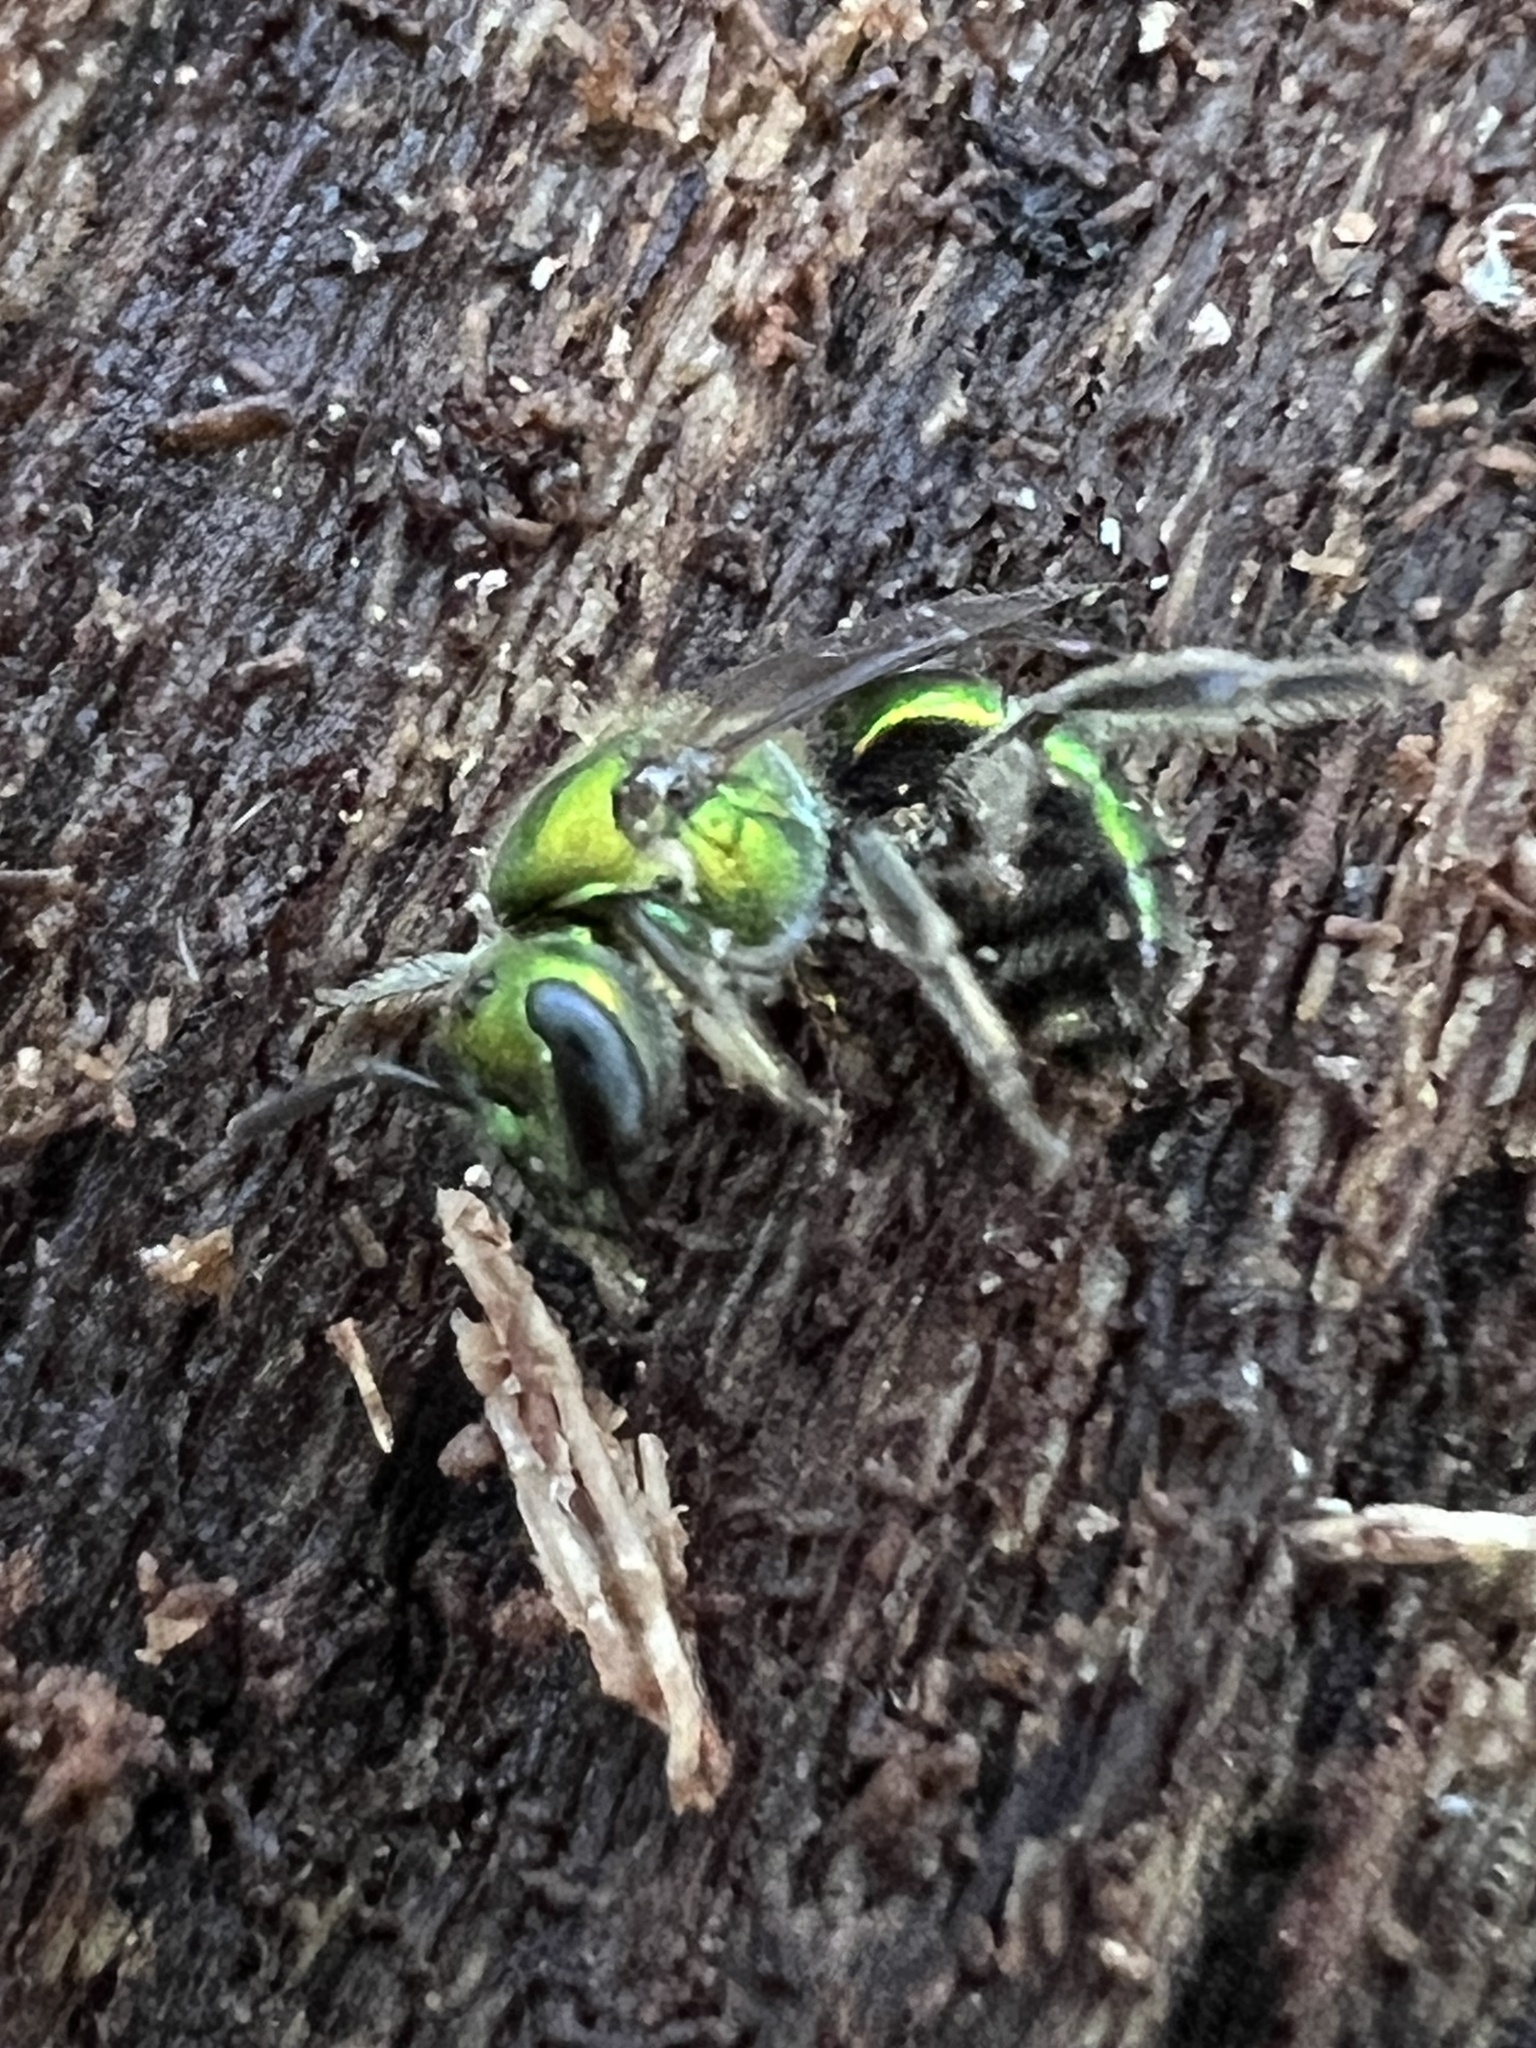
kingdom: Animalia
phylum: Arthropoda
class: Insecta
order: Hymenoptera
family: Halictidae
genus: Augochlora
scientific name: Augochlora pura
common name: Pure green sweat bee
